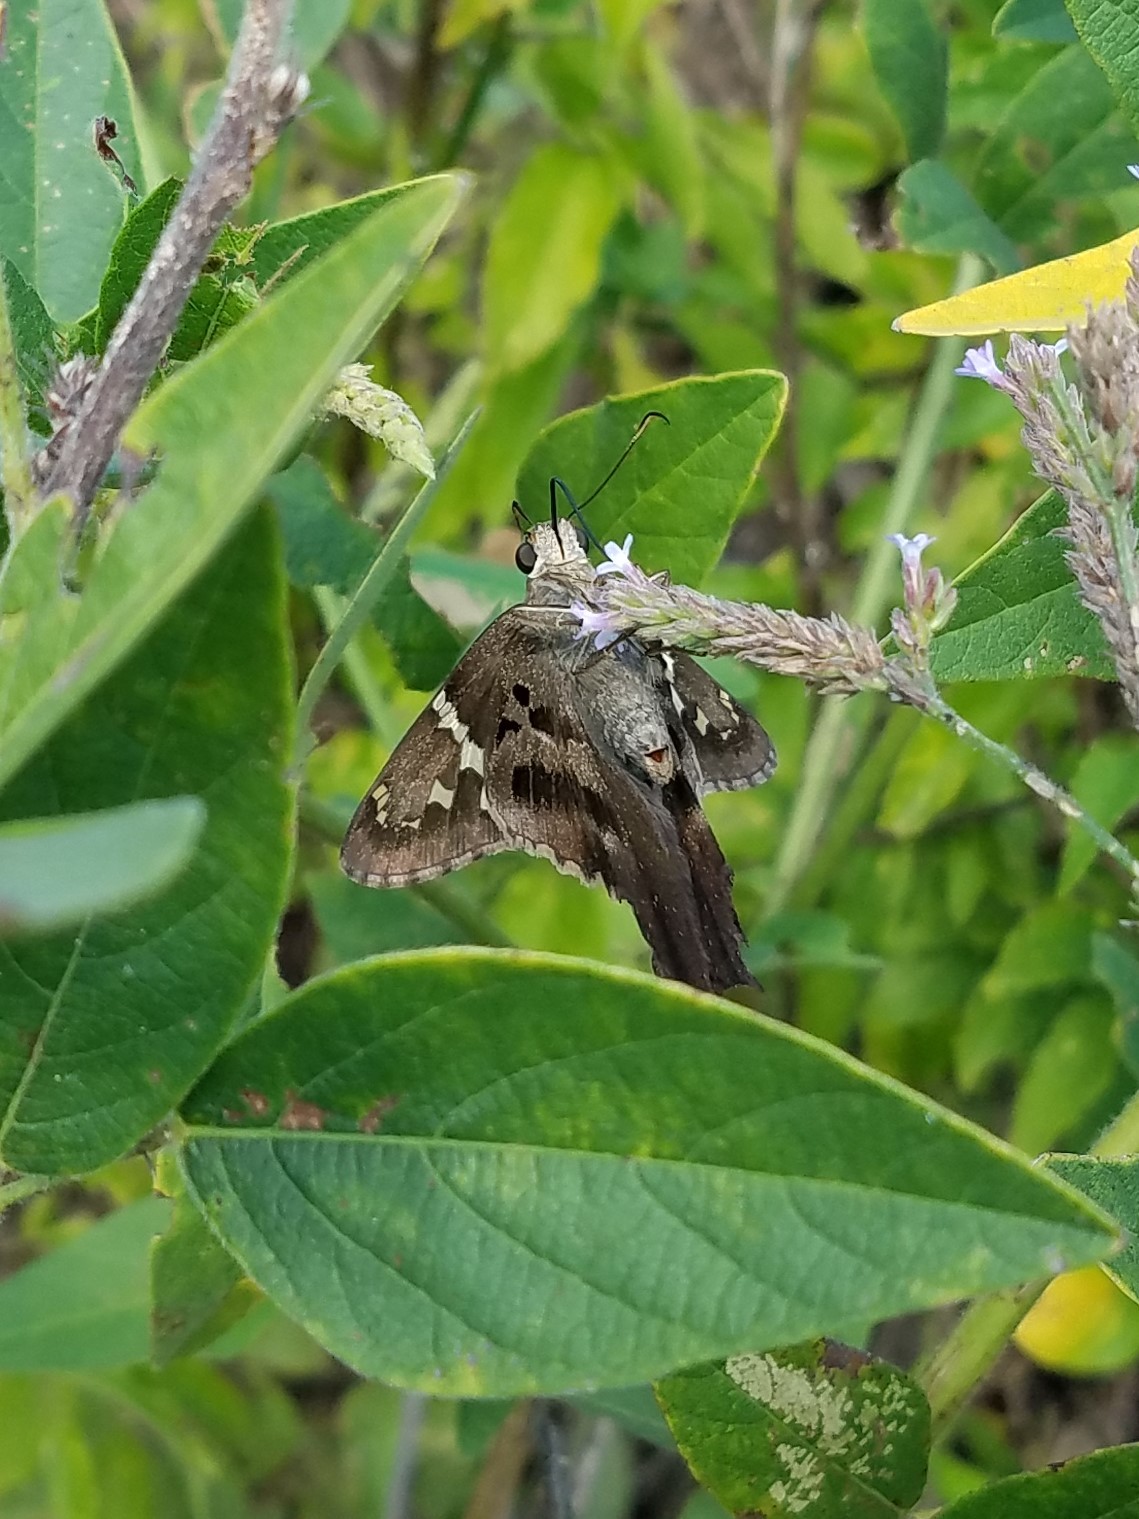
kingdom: Animalia
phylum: Arthropoda
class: Insecta
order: Lepidoptera
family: Hesperiidae
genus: Urbanus
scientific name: Urbanus proteus
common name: Long-tailed skipper
